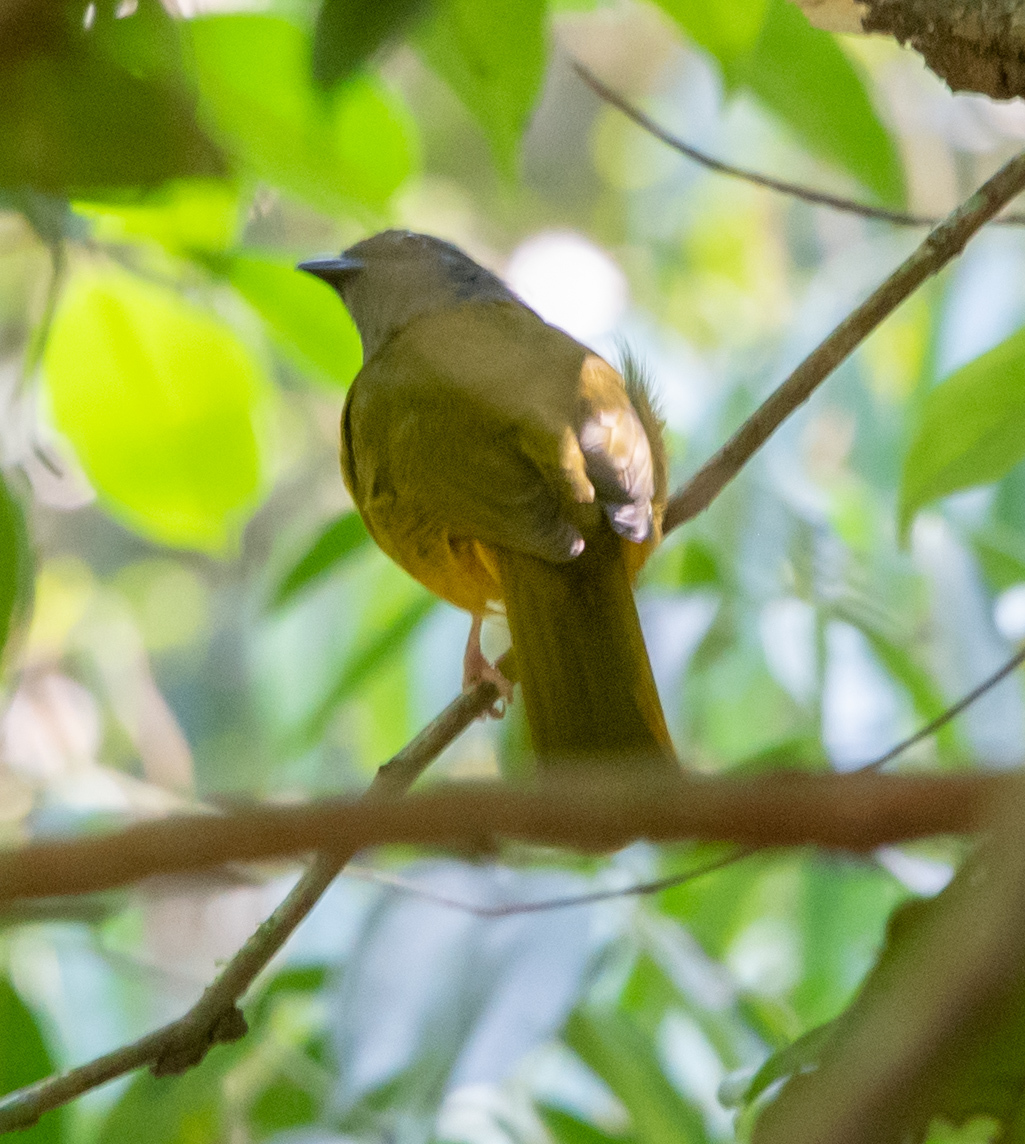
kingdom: Animalia
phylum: Chordata
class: Aves
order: Passeriformes
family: Thraupidae
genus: Eucometis
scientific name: Eucometis penicillata
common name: Grey-headed tanager
